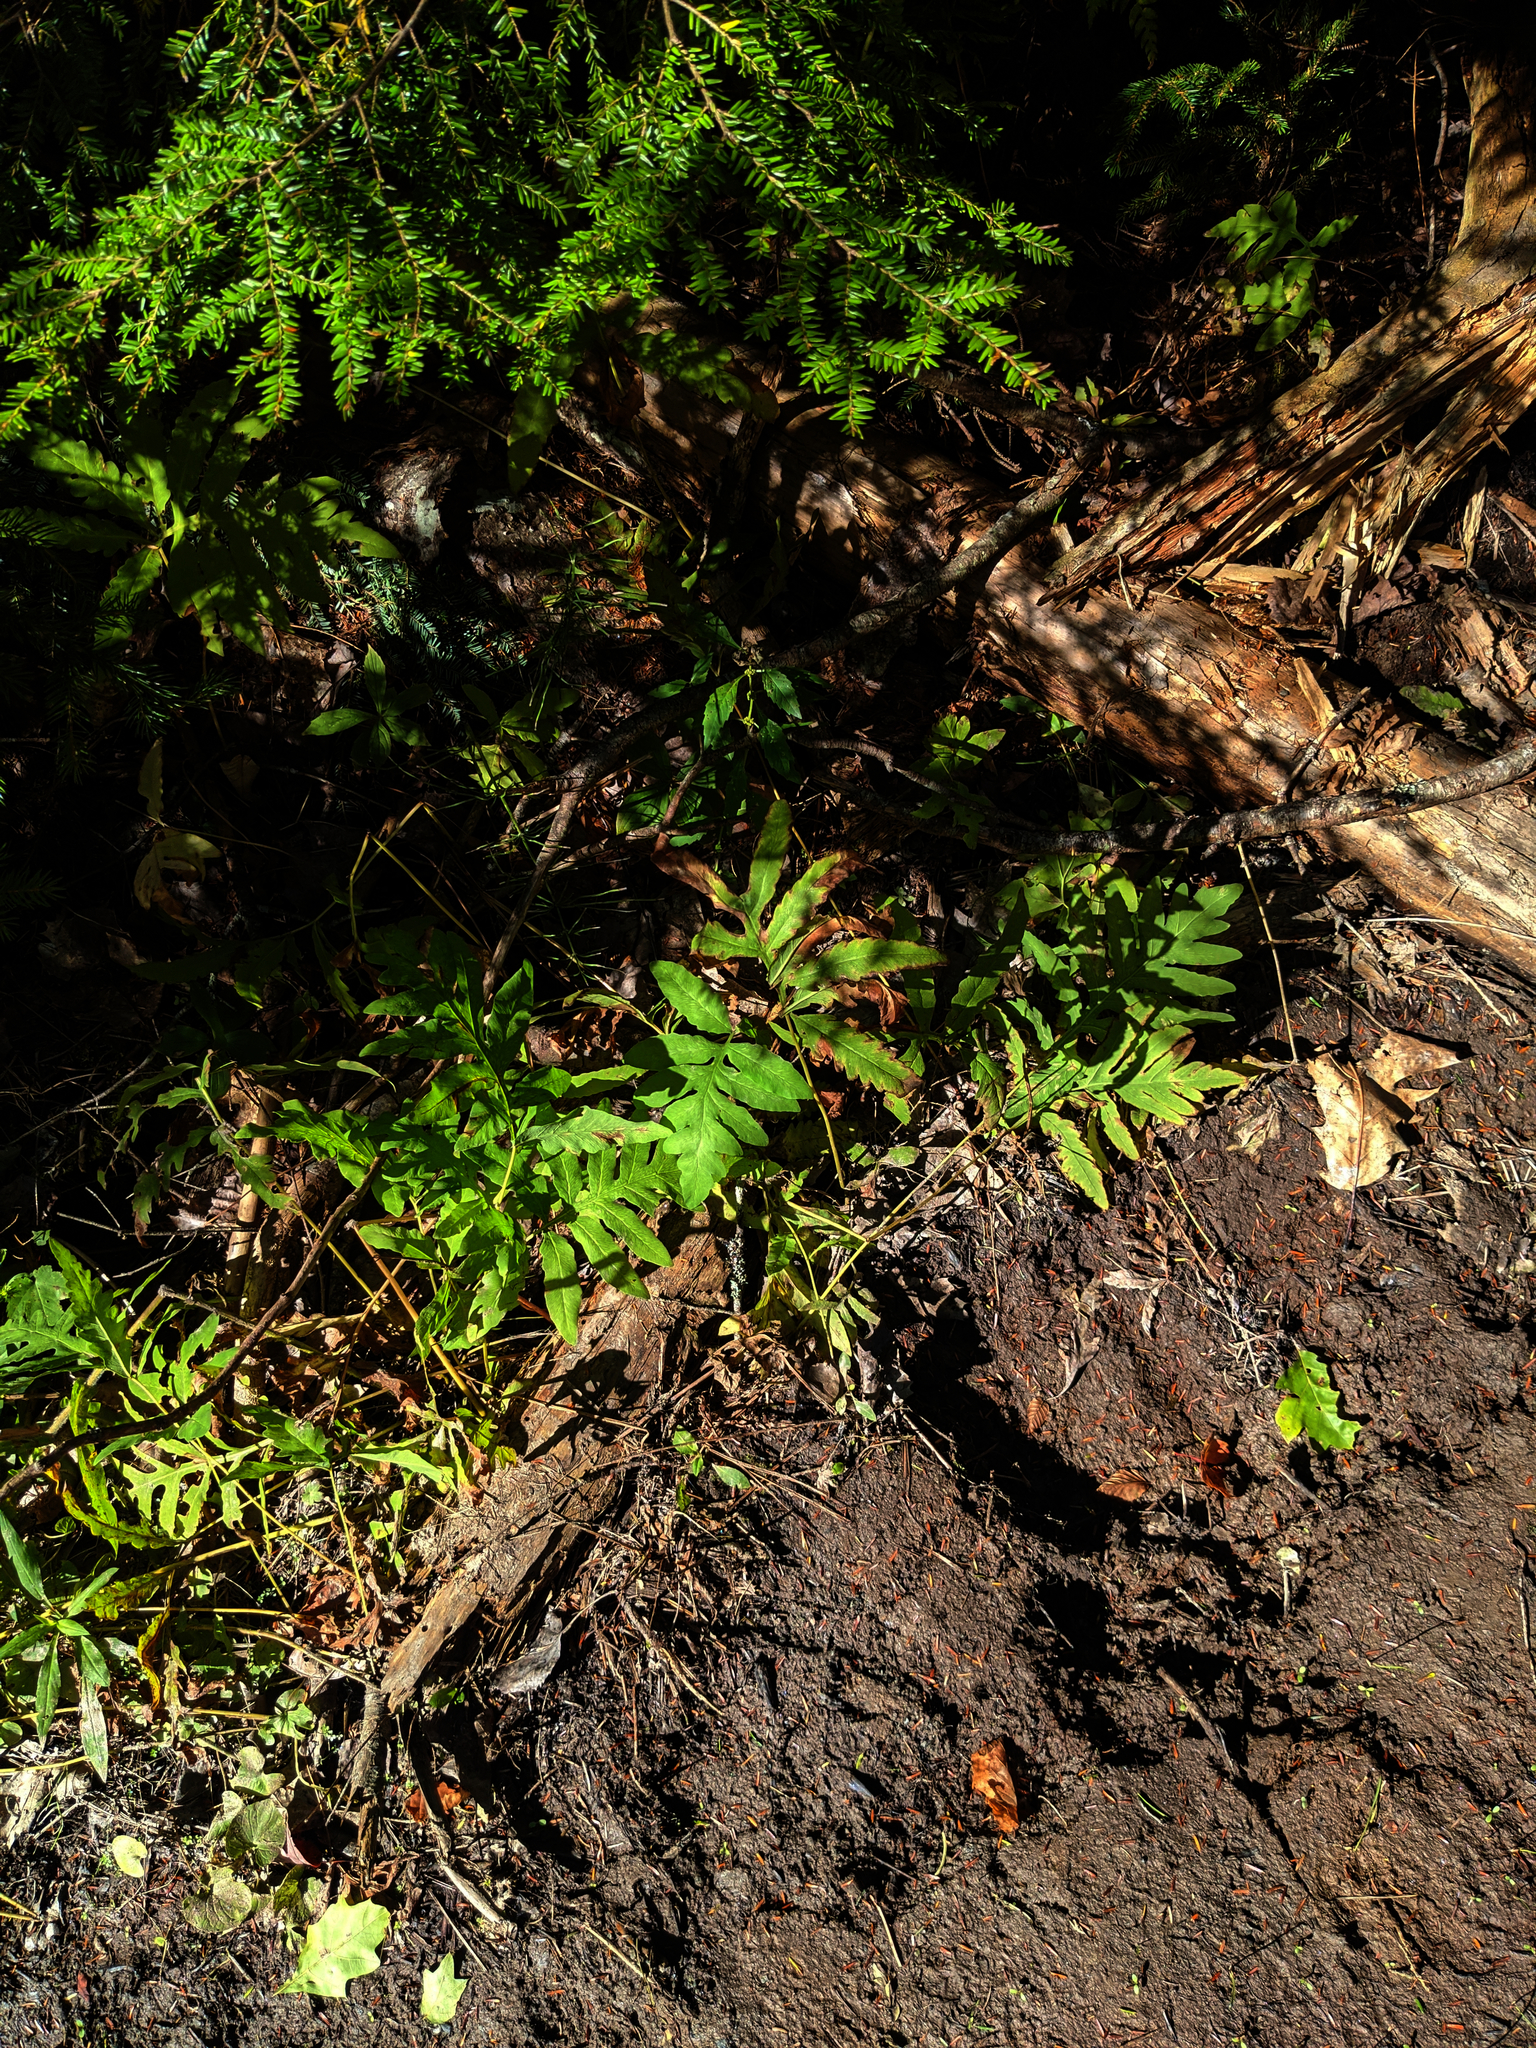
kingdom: Plantae
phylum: Tracheophyta
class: Polypodiopsida
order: Polypodiales
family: Onocleaceae
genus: Onoclea
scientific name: Onoclea sensibilis
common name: Sensitive fern
